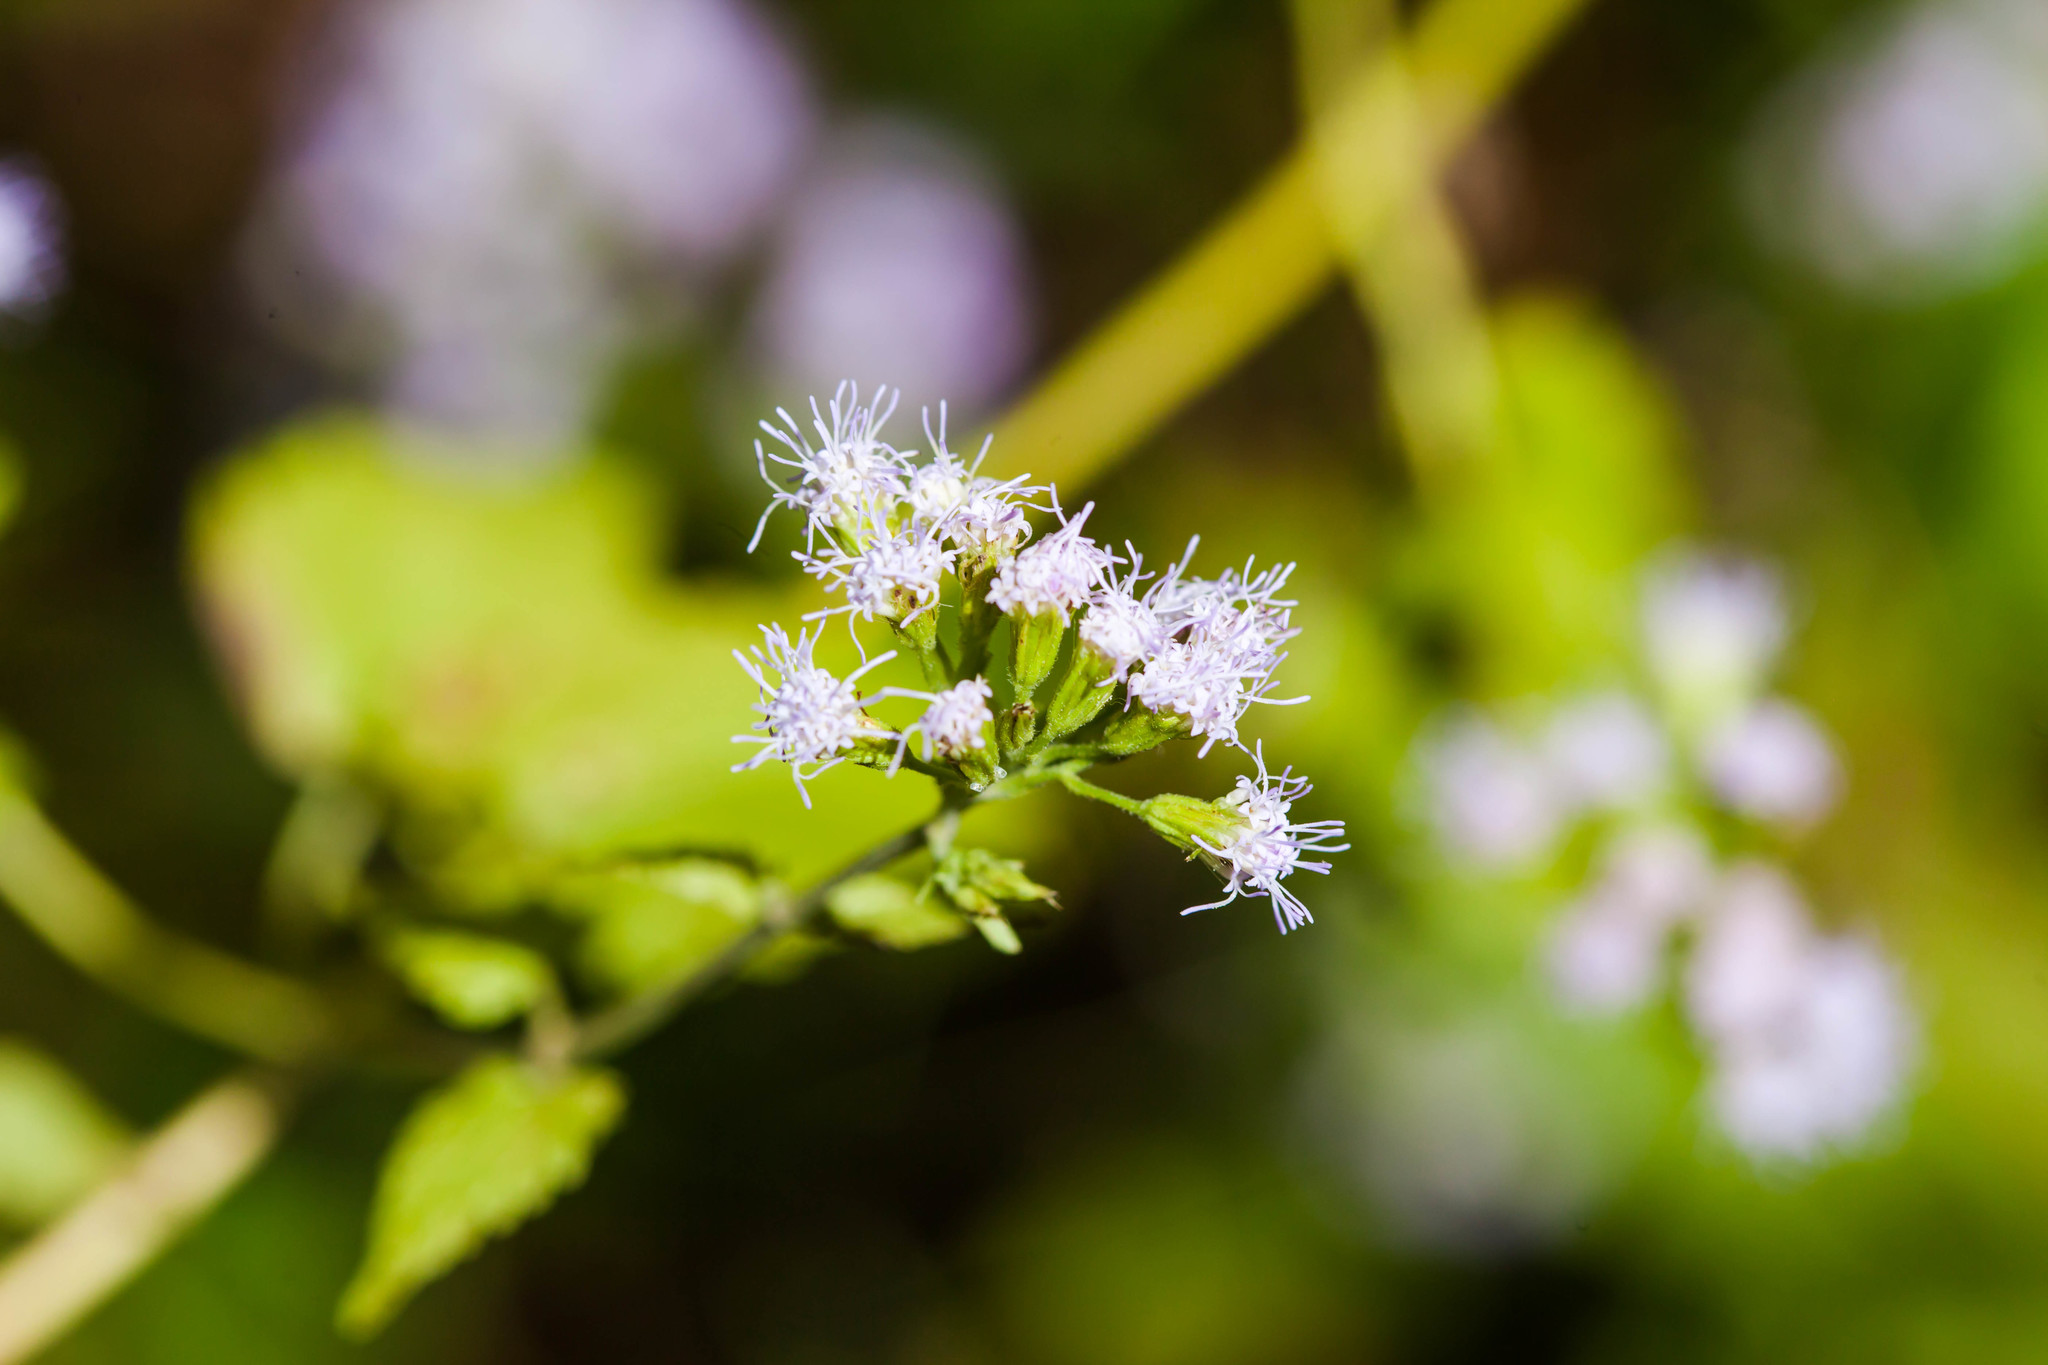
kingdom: Plantae
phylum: Tracheophyta
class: Magnoliopsida
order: Asterales
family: Asteraceae
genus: Fleischmannia
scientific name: Fleischmannia incarnata
